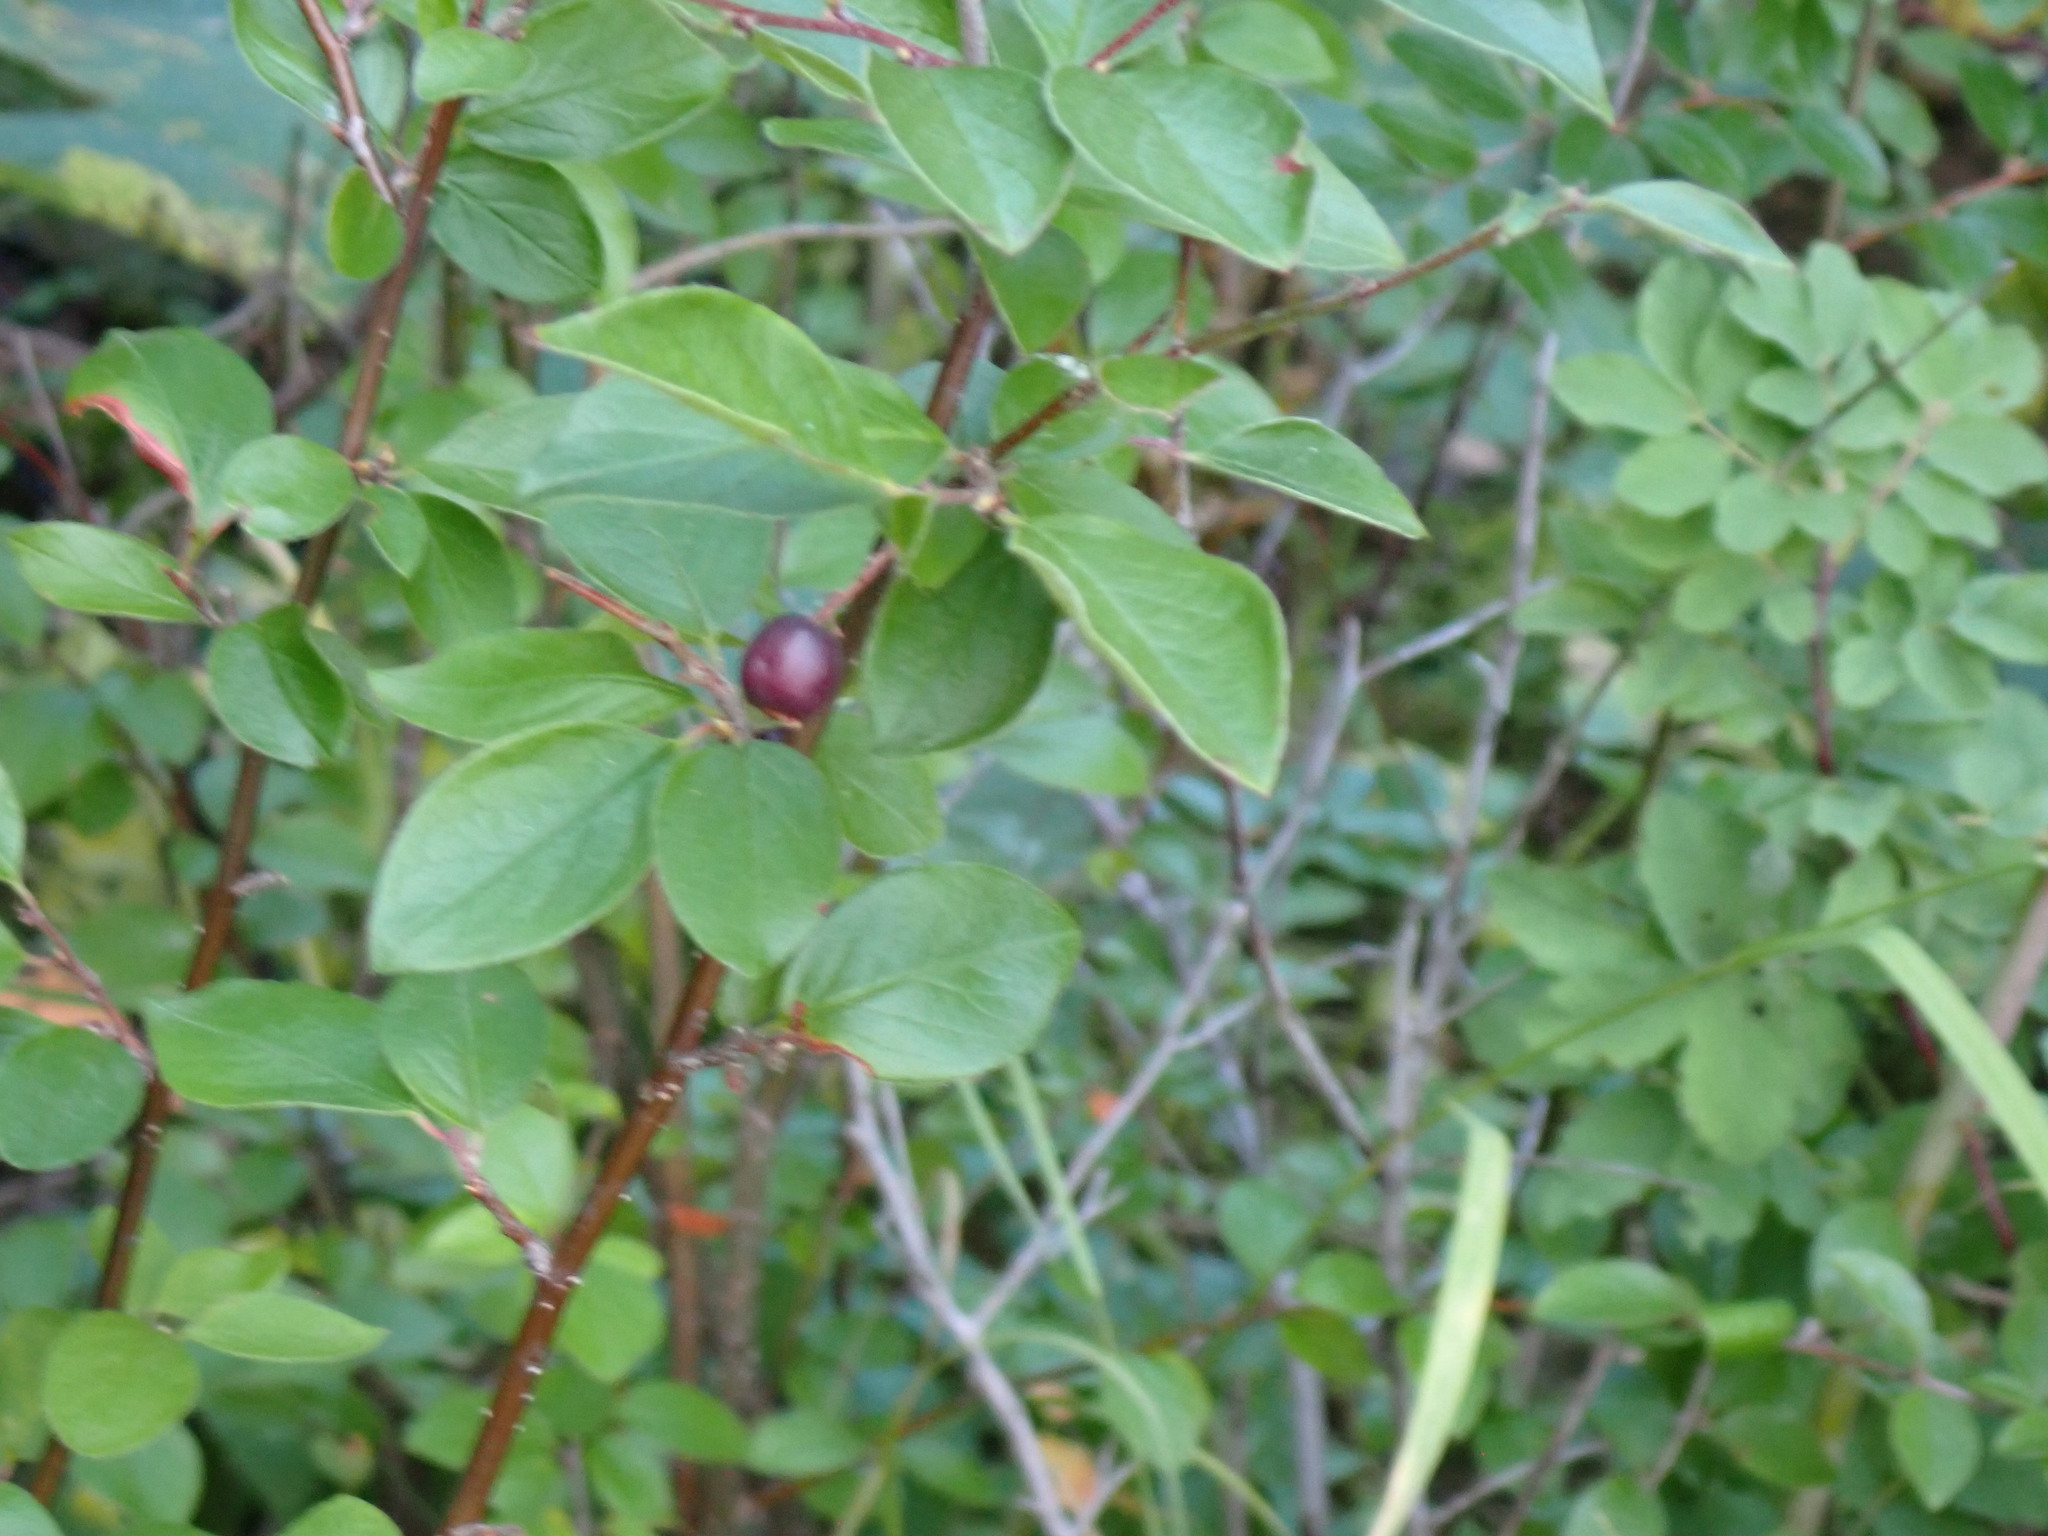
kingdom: Plantae
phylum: Tracheophyta
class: Magnoliopsida
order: Rosales
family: Rosaceae
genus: Cotoneaster
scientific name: Cotoneaster acutifolius
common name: Peking cotoneaster
